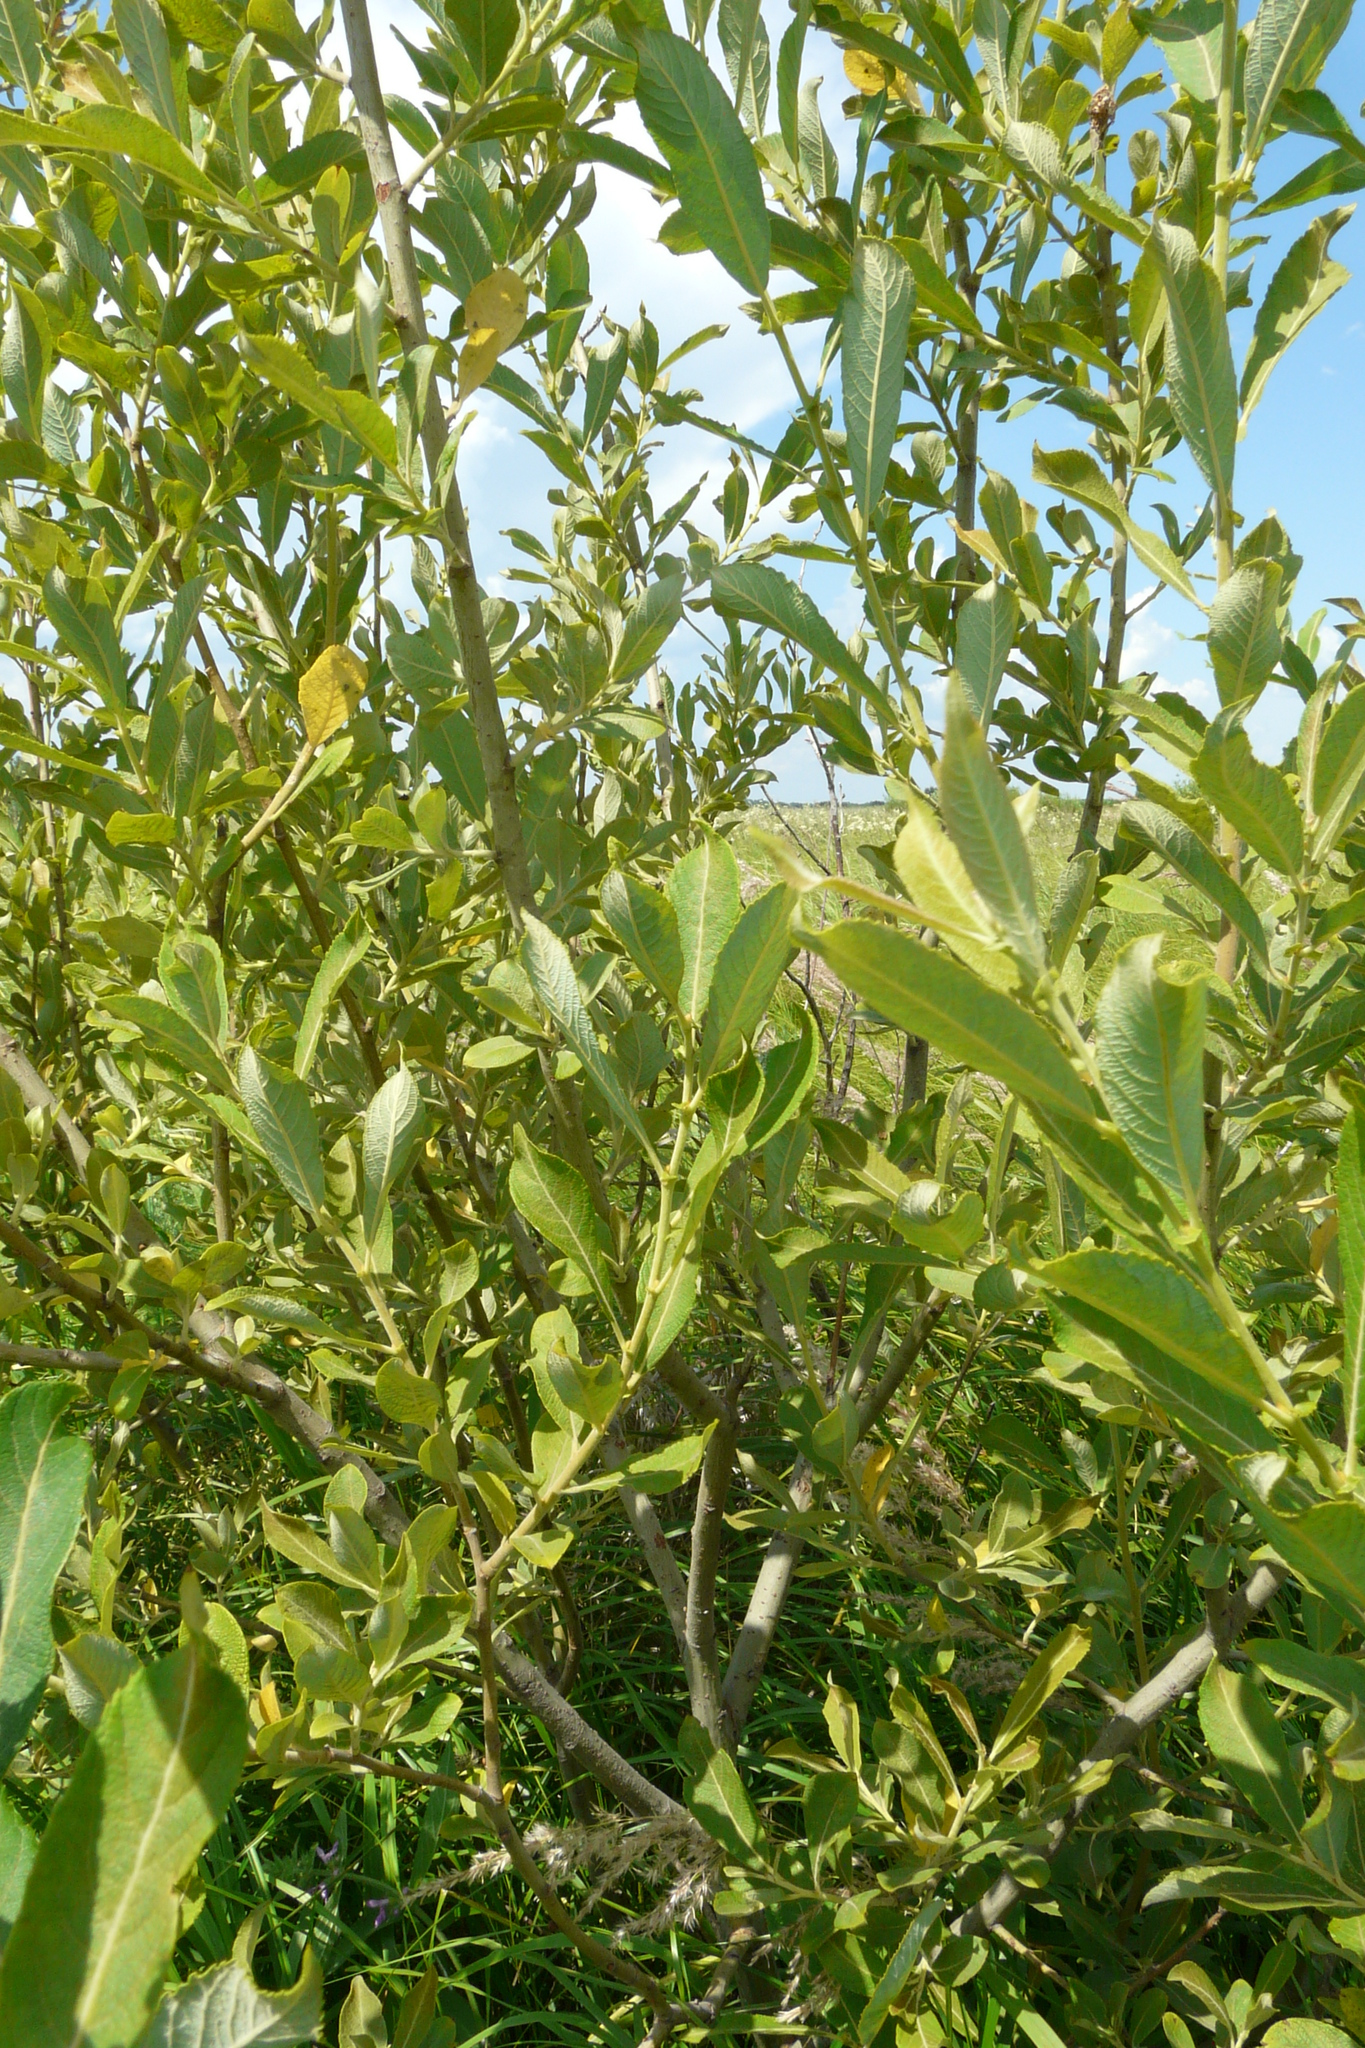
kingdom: Plantae
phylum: Tracheophyta
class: Magnoliopsida
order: Malpighiales
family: Salicaceae
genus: Salix
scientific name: Salix cinerea
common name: Common sallow
